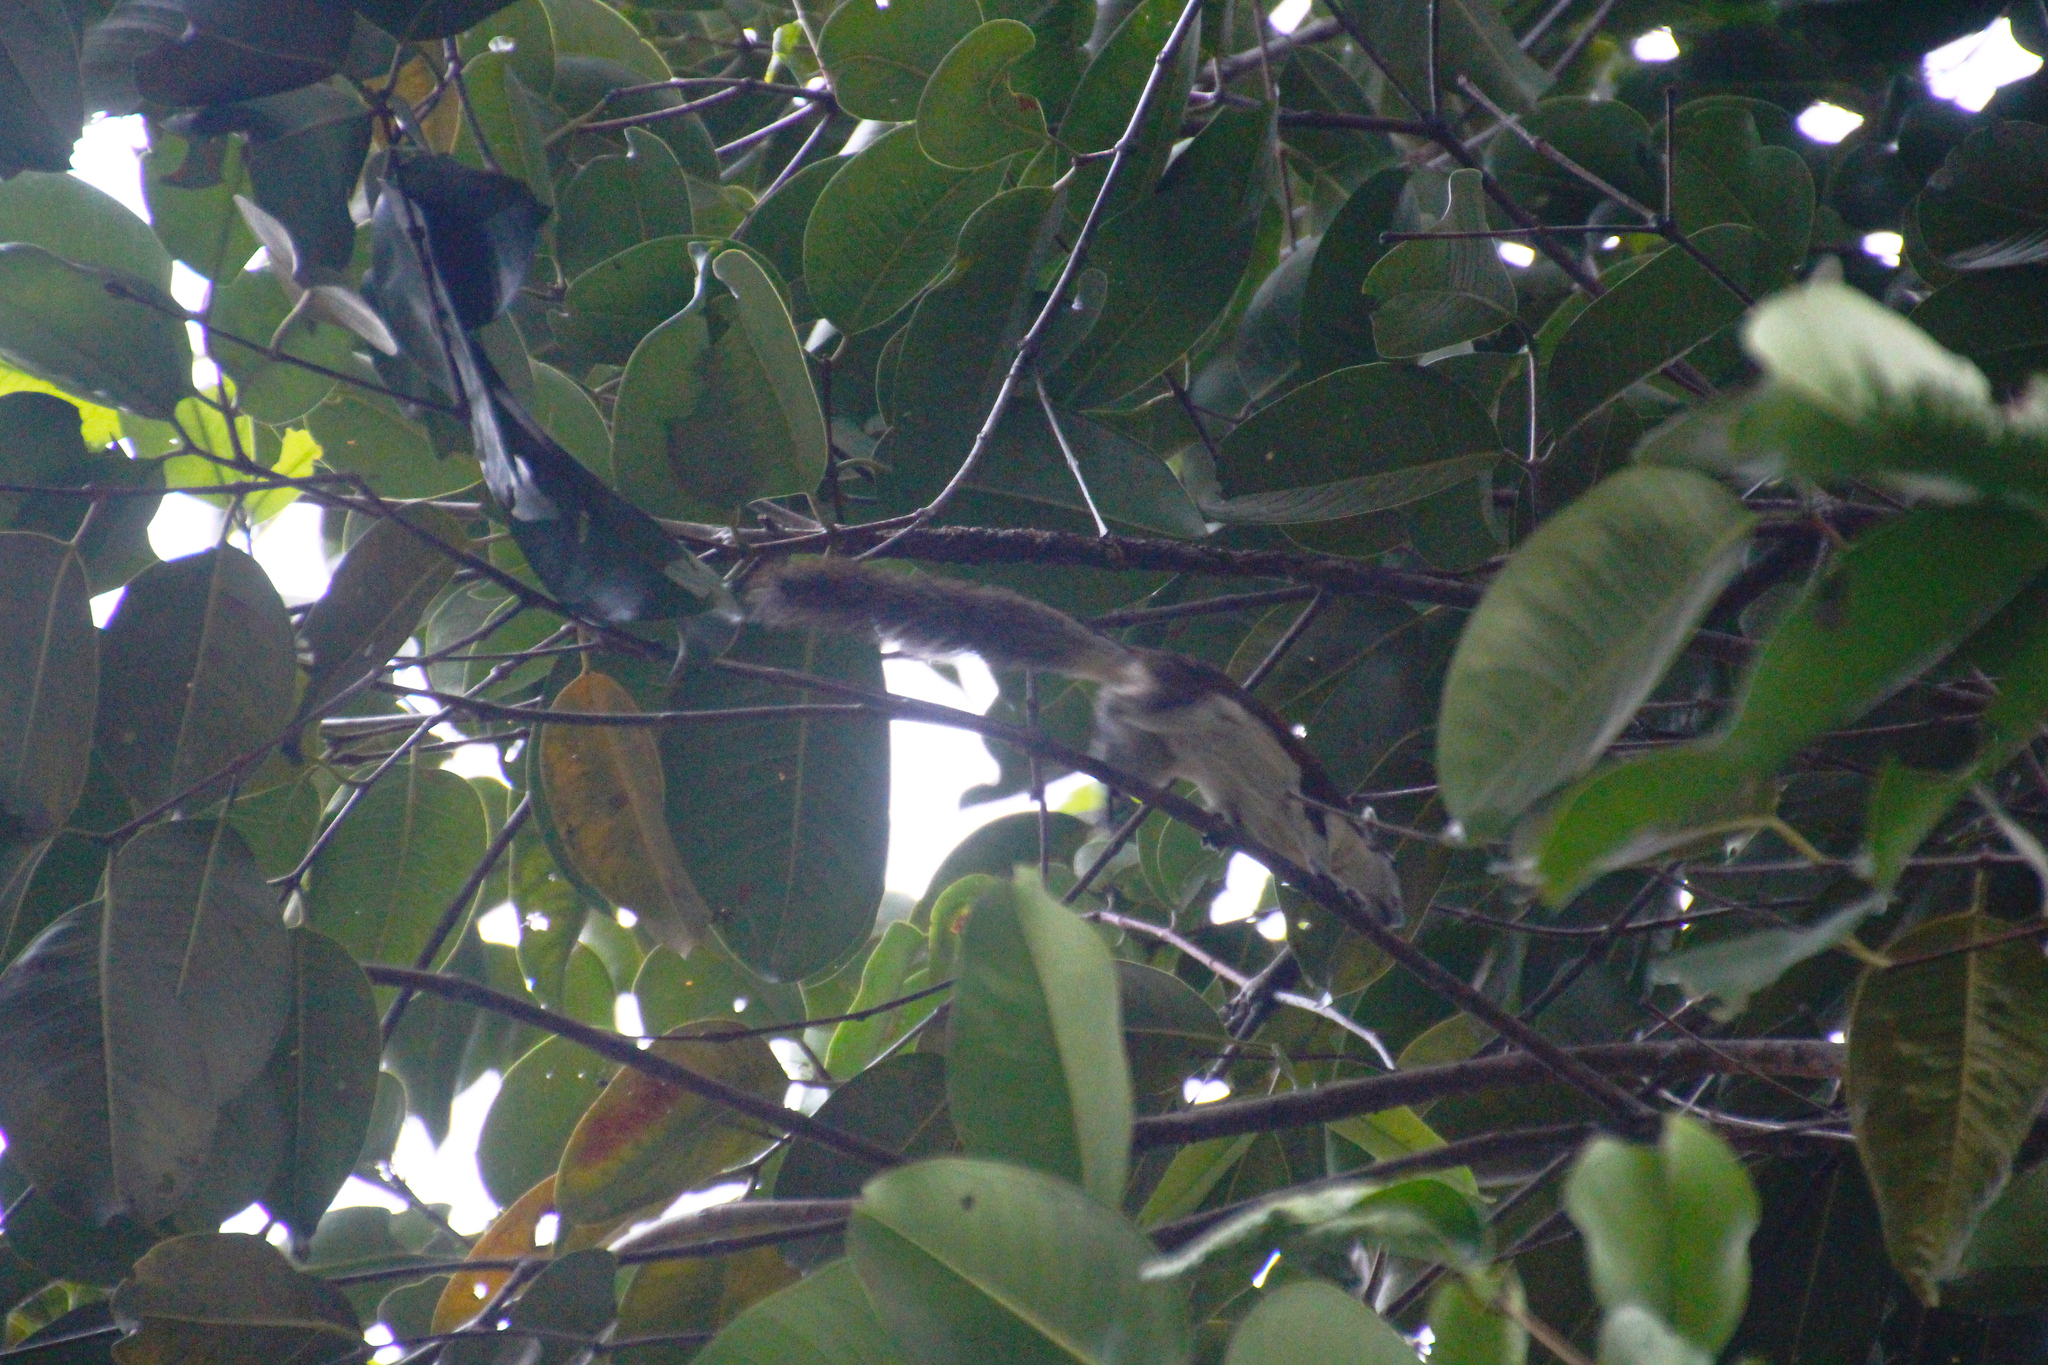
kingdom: Animalia
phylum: Chordata
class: Mammalia
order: Rodentia
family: Sciuridae
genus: Callosciurus
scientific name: Callosciurus finlaysonii
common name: Finlayson's squirrel
